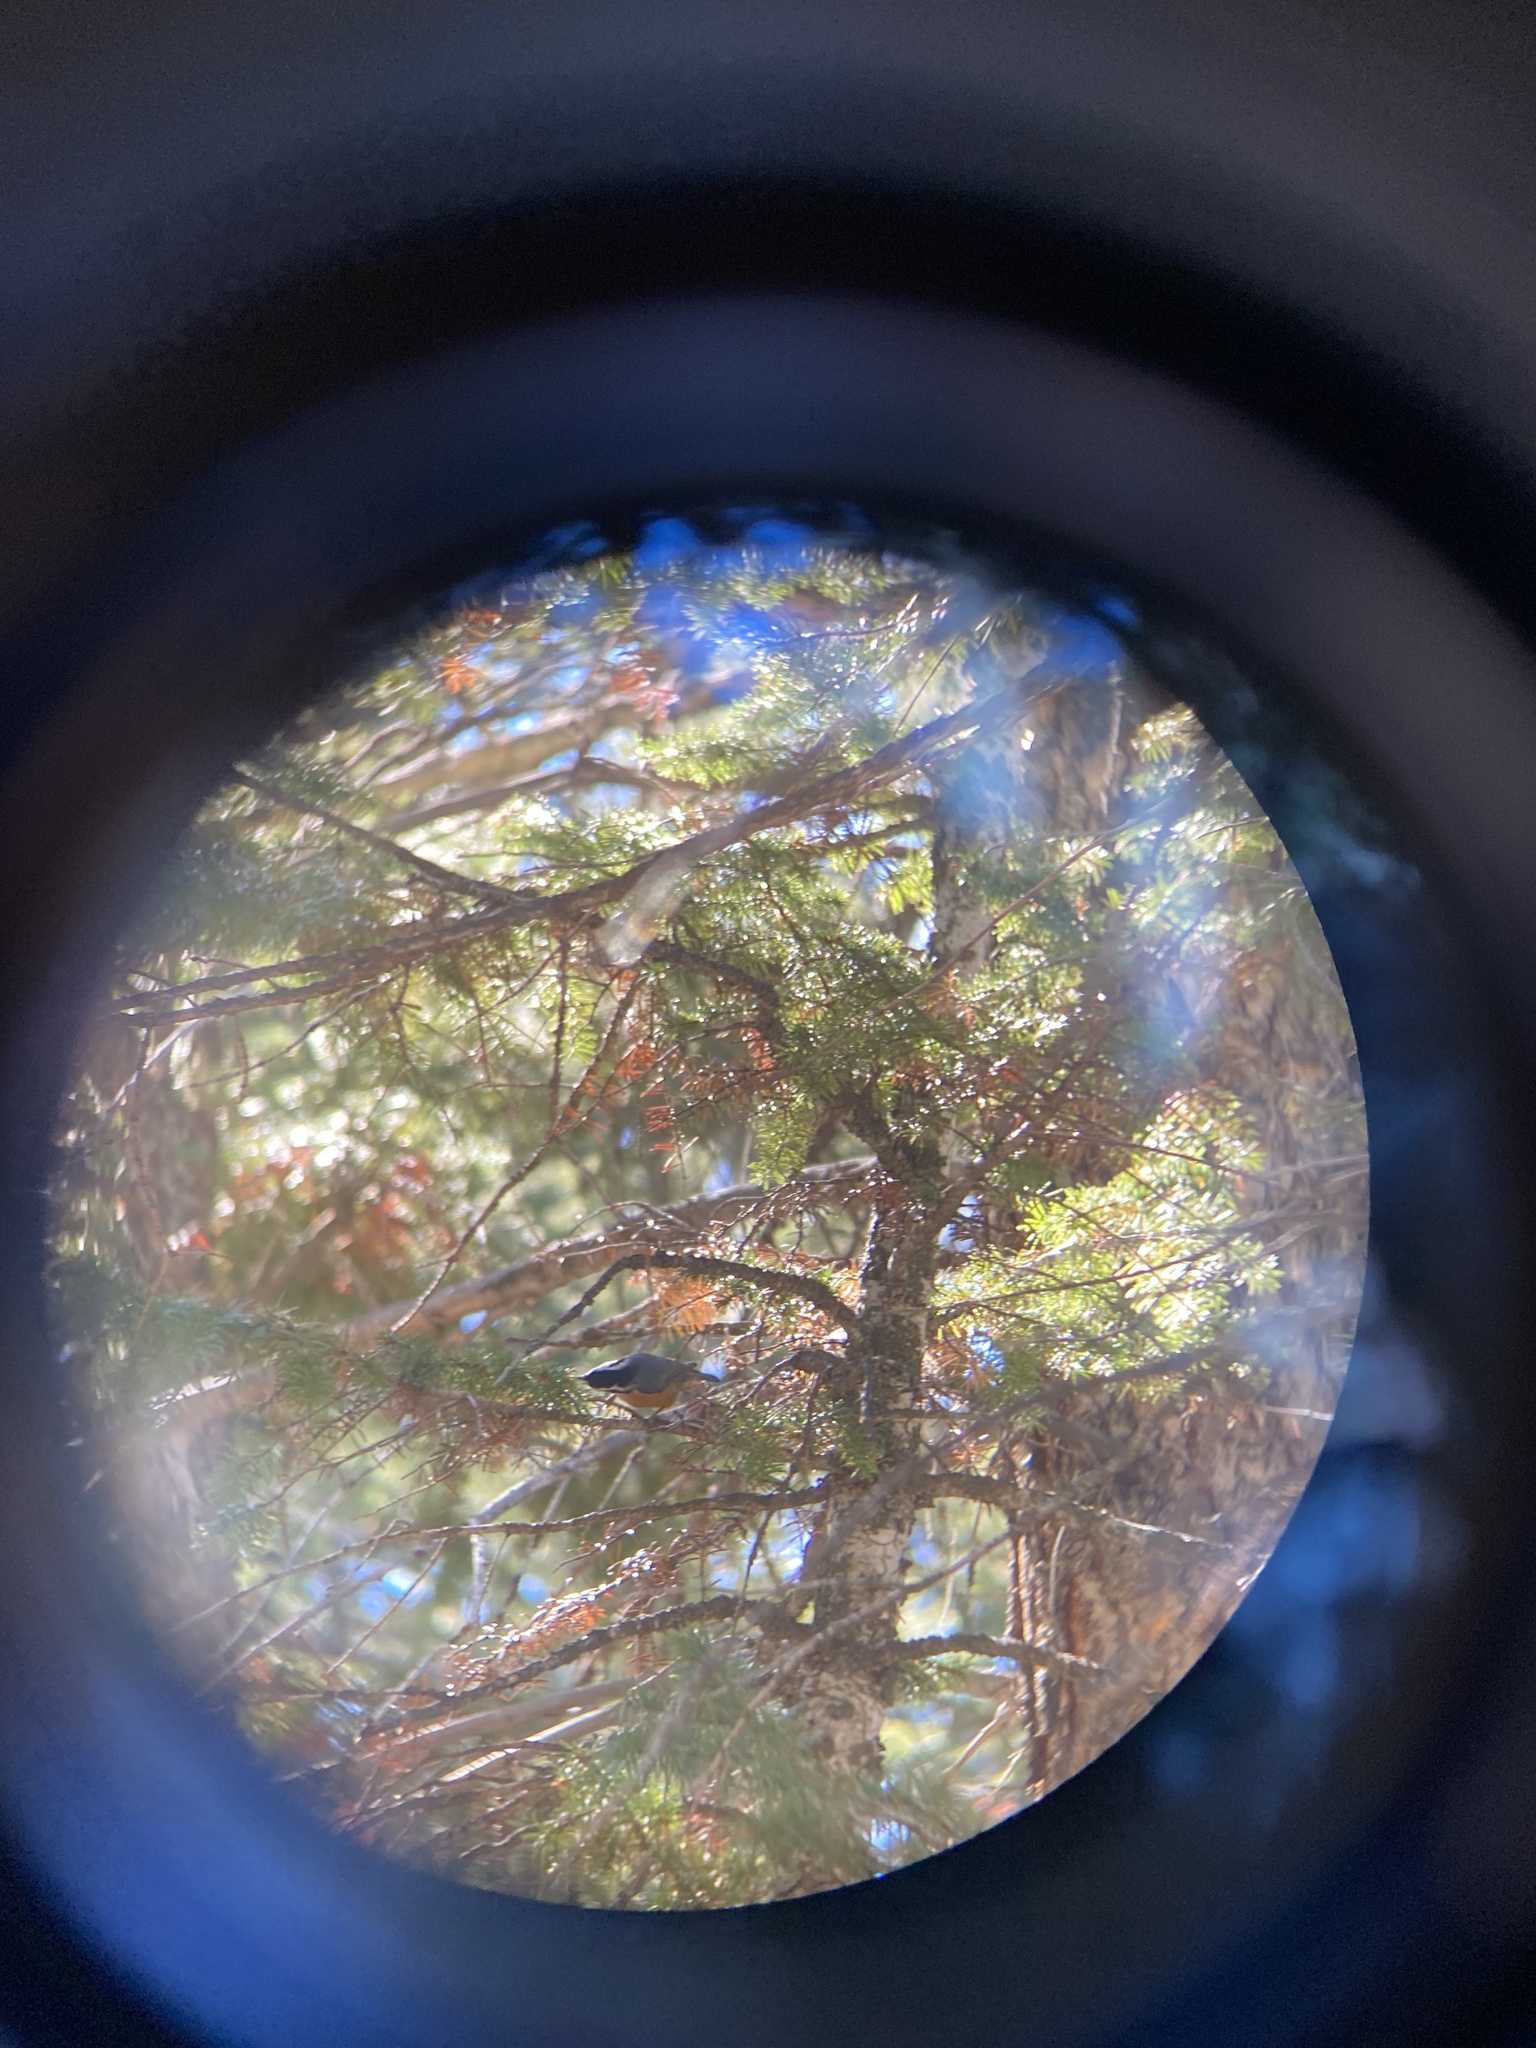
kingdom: Animalia
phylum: Chordata
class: Aves
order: Passeriformes
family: Sittidae
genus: Sitta
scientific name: Sitta canadensis
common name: Red-breasted nuthatch
